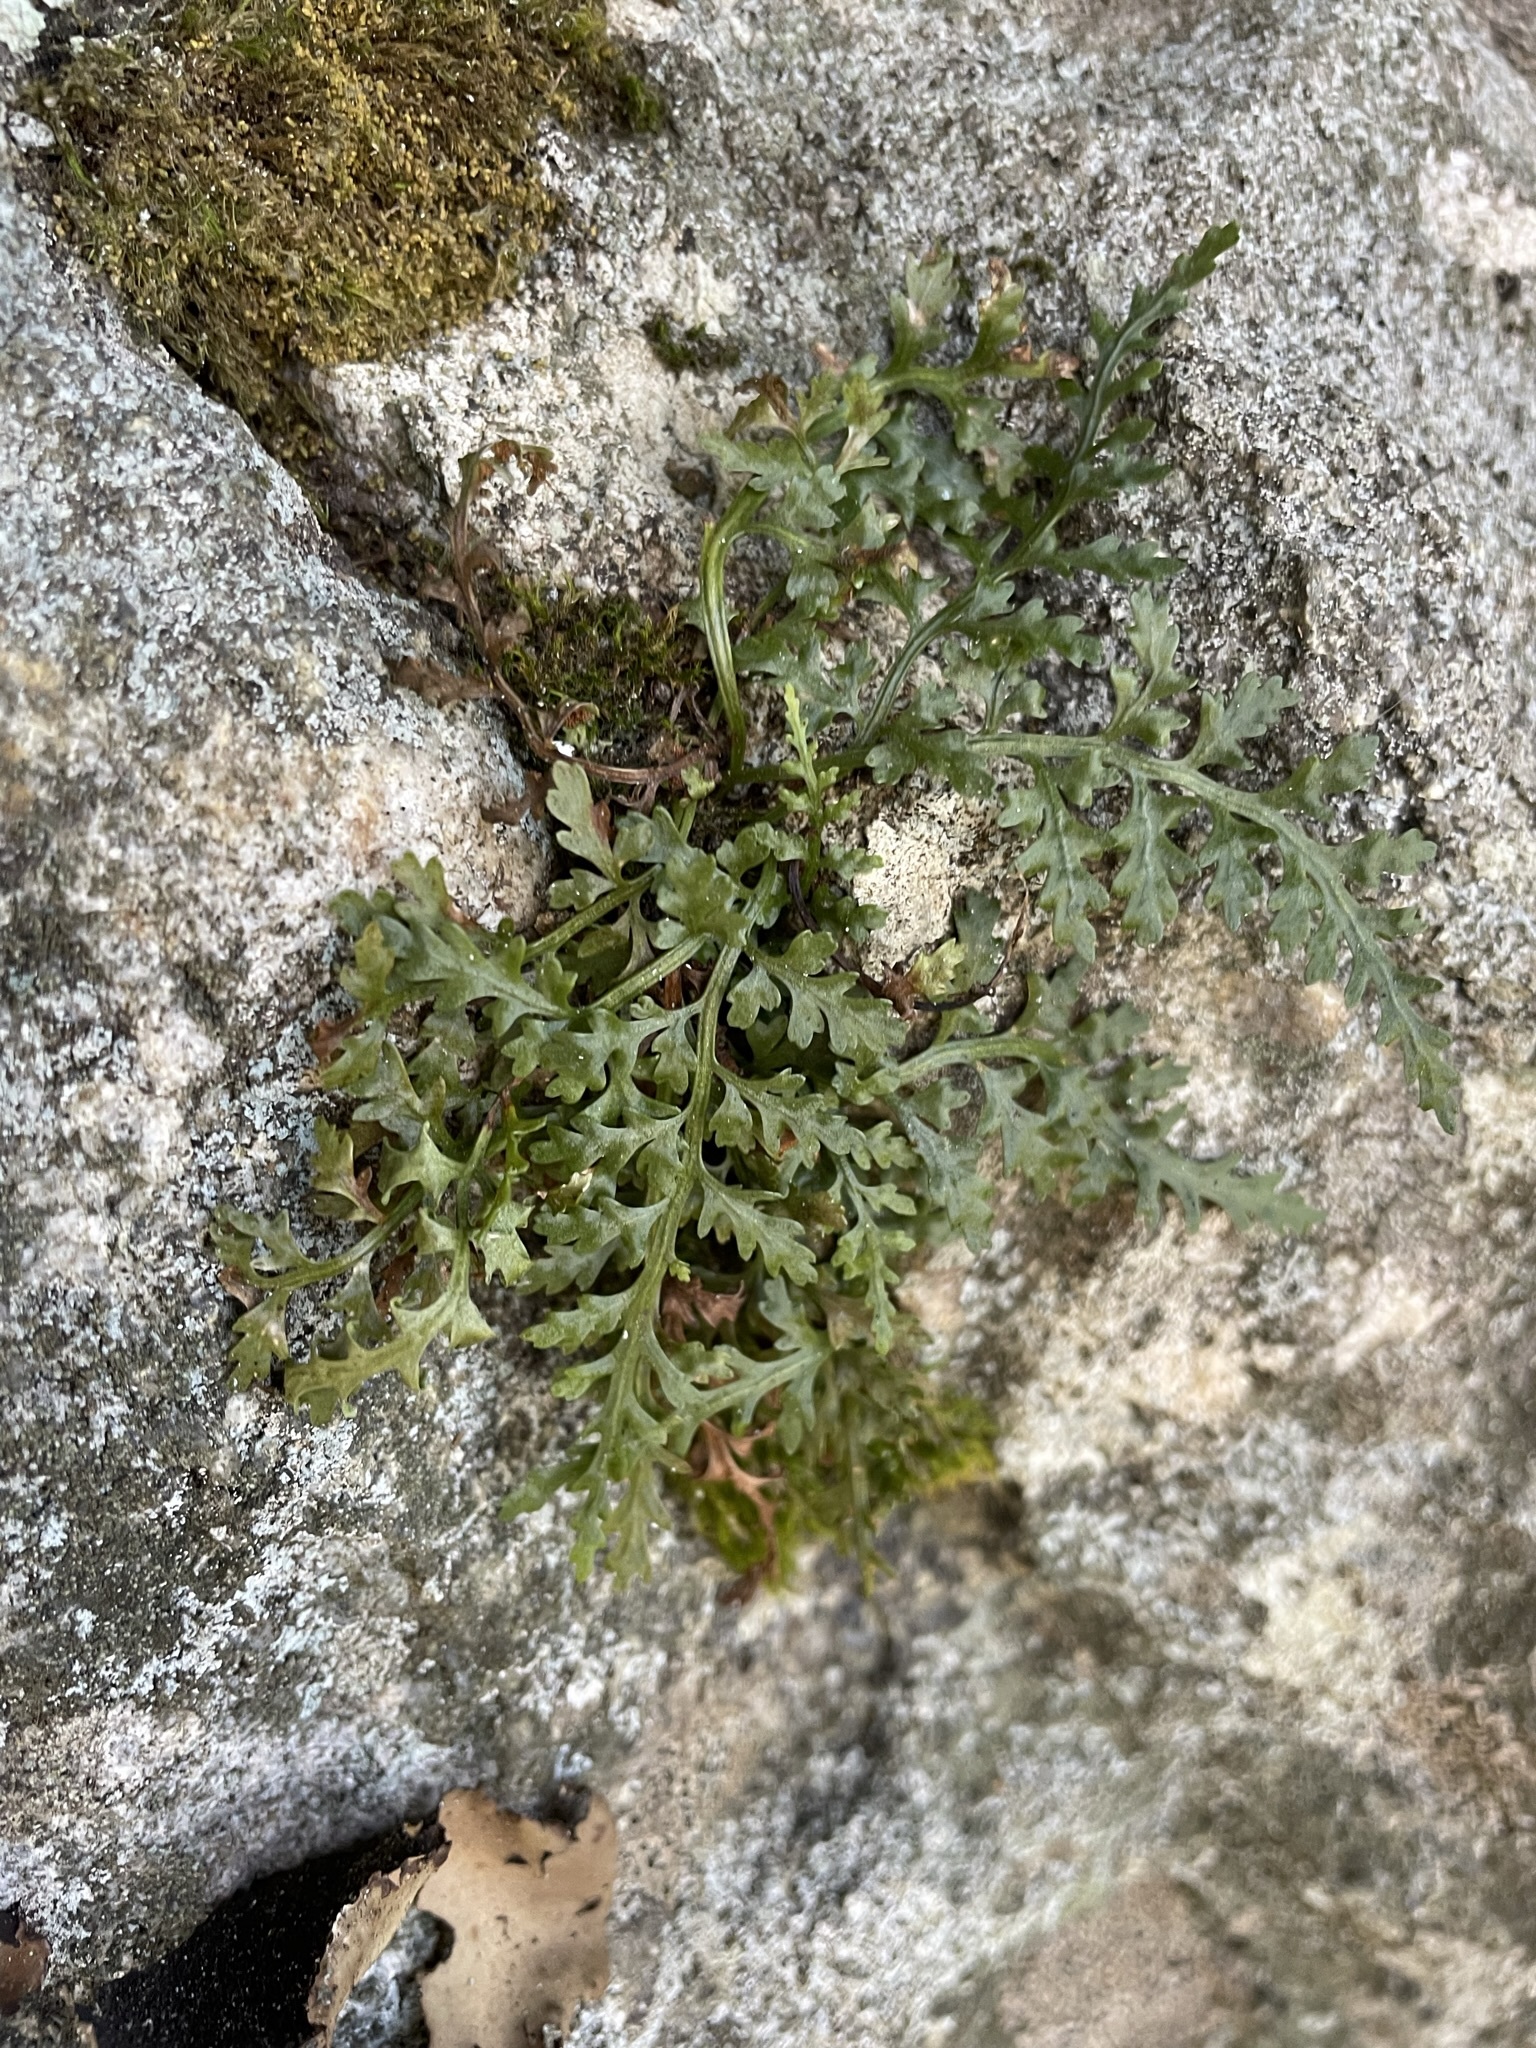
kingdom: Plantae
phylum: Tracheophyta
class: Polypodiopsida
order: Polypodiales
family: Aspleniaceae
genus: Asplenium
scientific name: Asplenium montanum
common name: Mountain spleenwort
